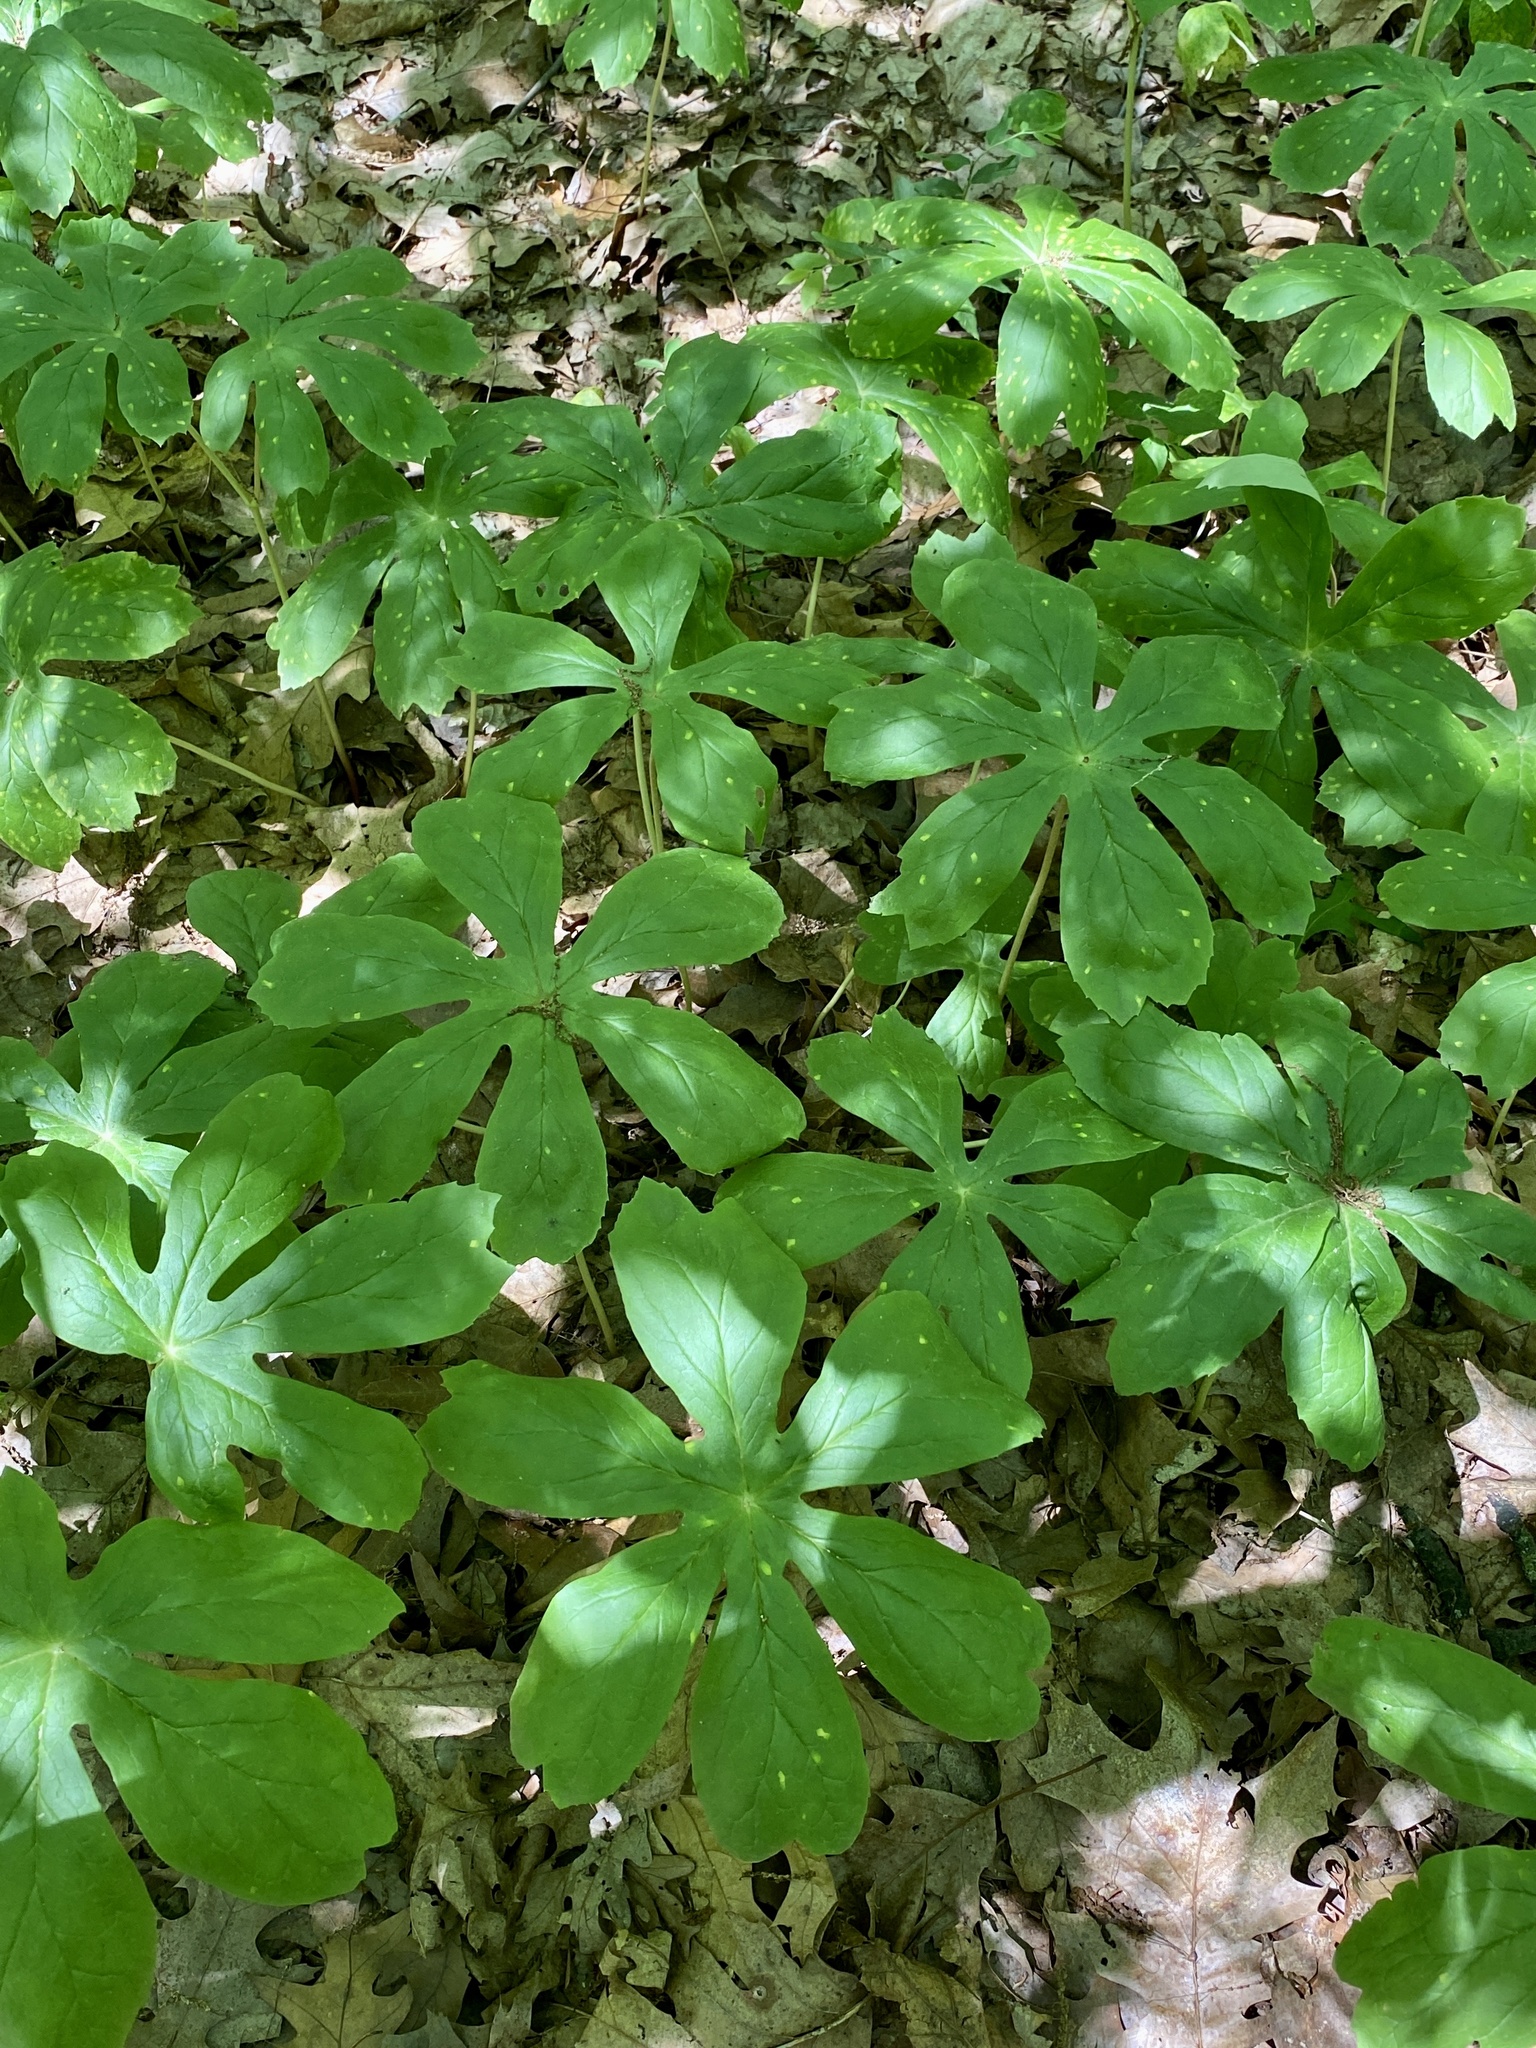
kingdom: Plantae
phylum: Tracheophyta
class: Magnoliopsida
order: Ranunculales
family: Berberidaceae
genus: Podophyllum
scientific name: Podophyllum peltatum
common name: Wild mandrake
